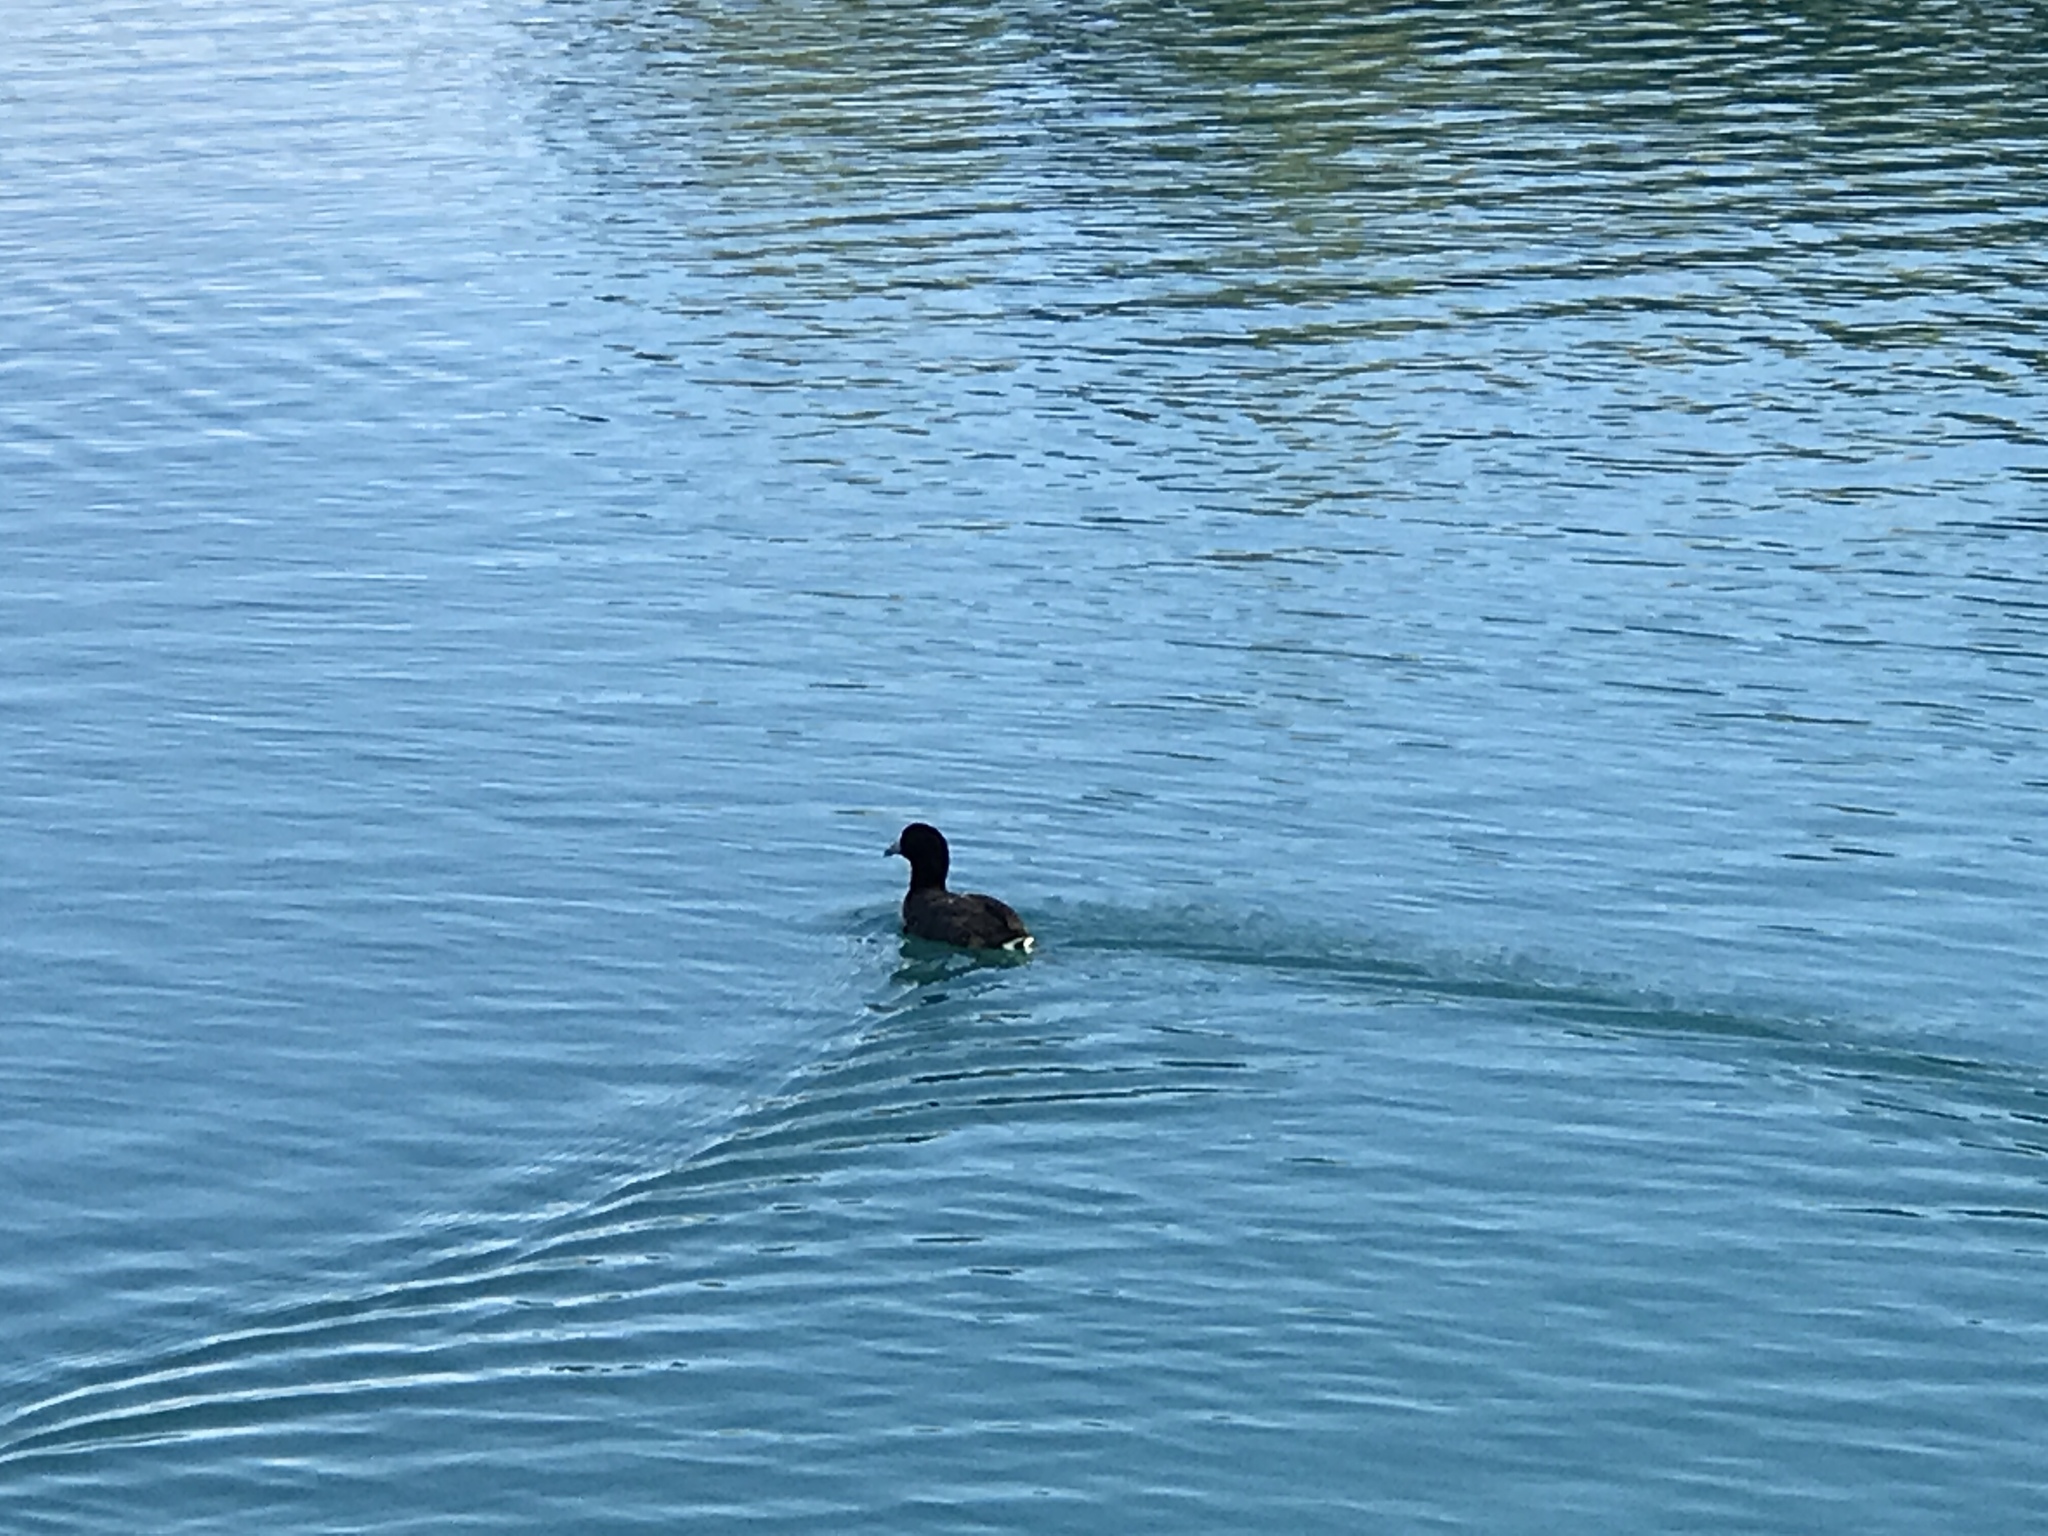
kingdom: Animalia
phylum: Chordata
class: Aves
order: Gruiformes
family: Rallidae
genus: Fulica
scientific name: Fulica americana
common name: American coot
